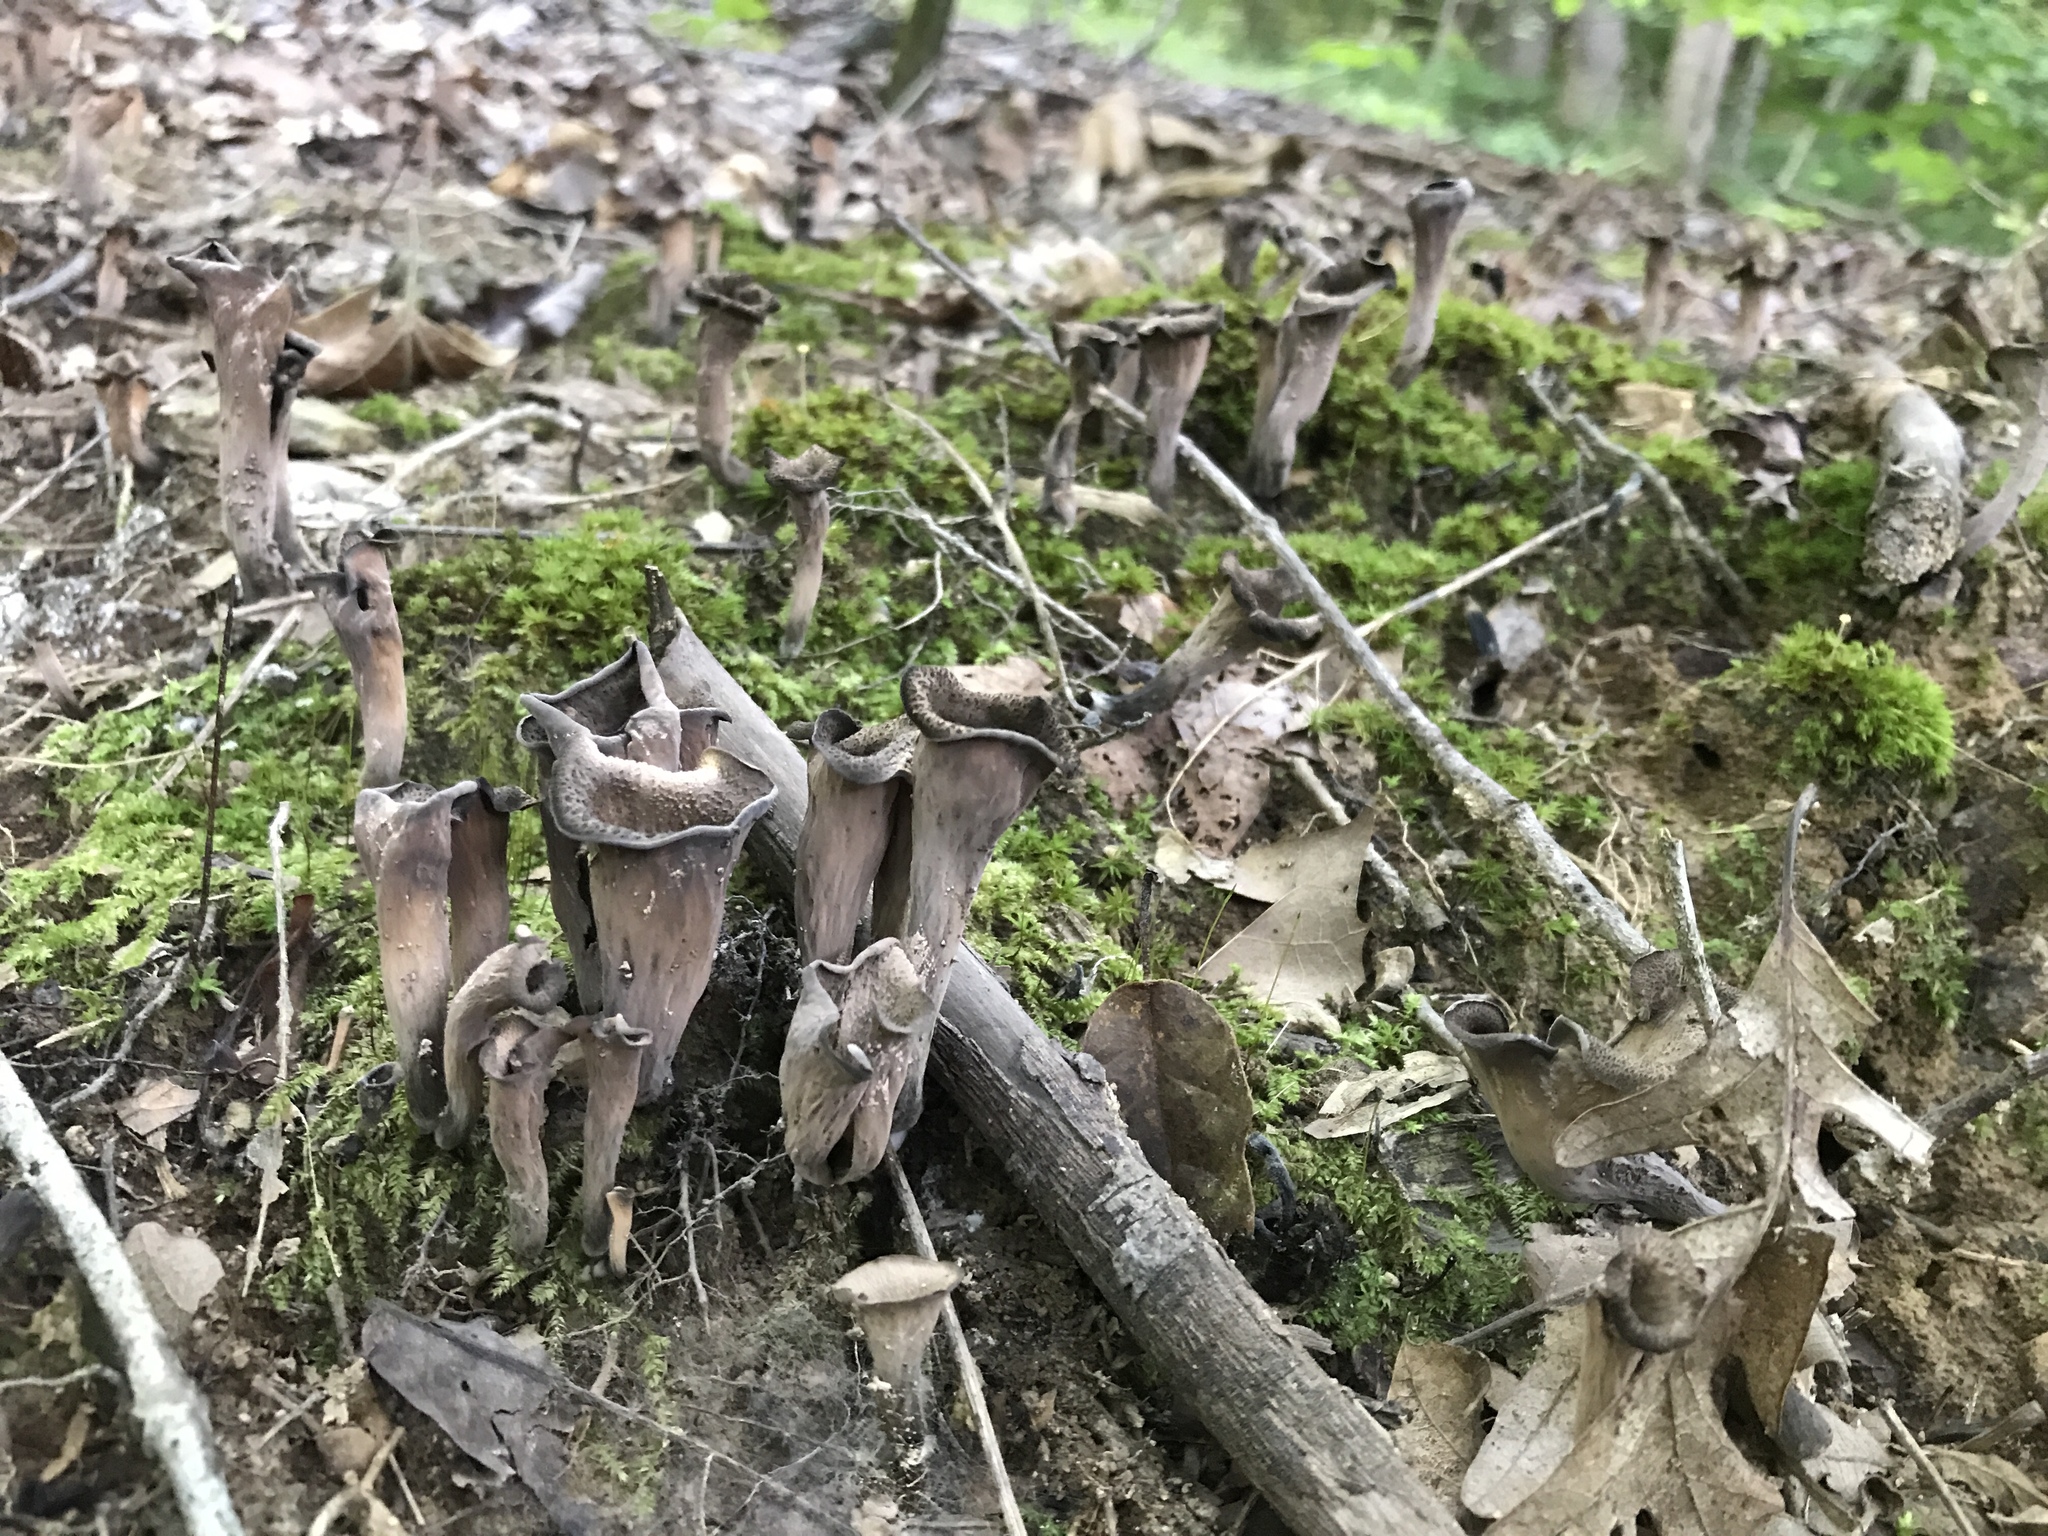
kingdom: Fungi
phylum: Basidiomycota
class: Agaricomycetes
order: Cantharellales
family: Hydnaceae
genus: Craterellus
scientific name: Craterellus cornucopioides
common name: Horn of plenty
